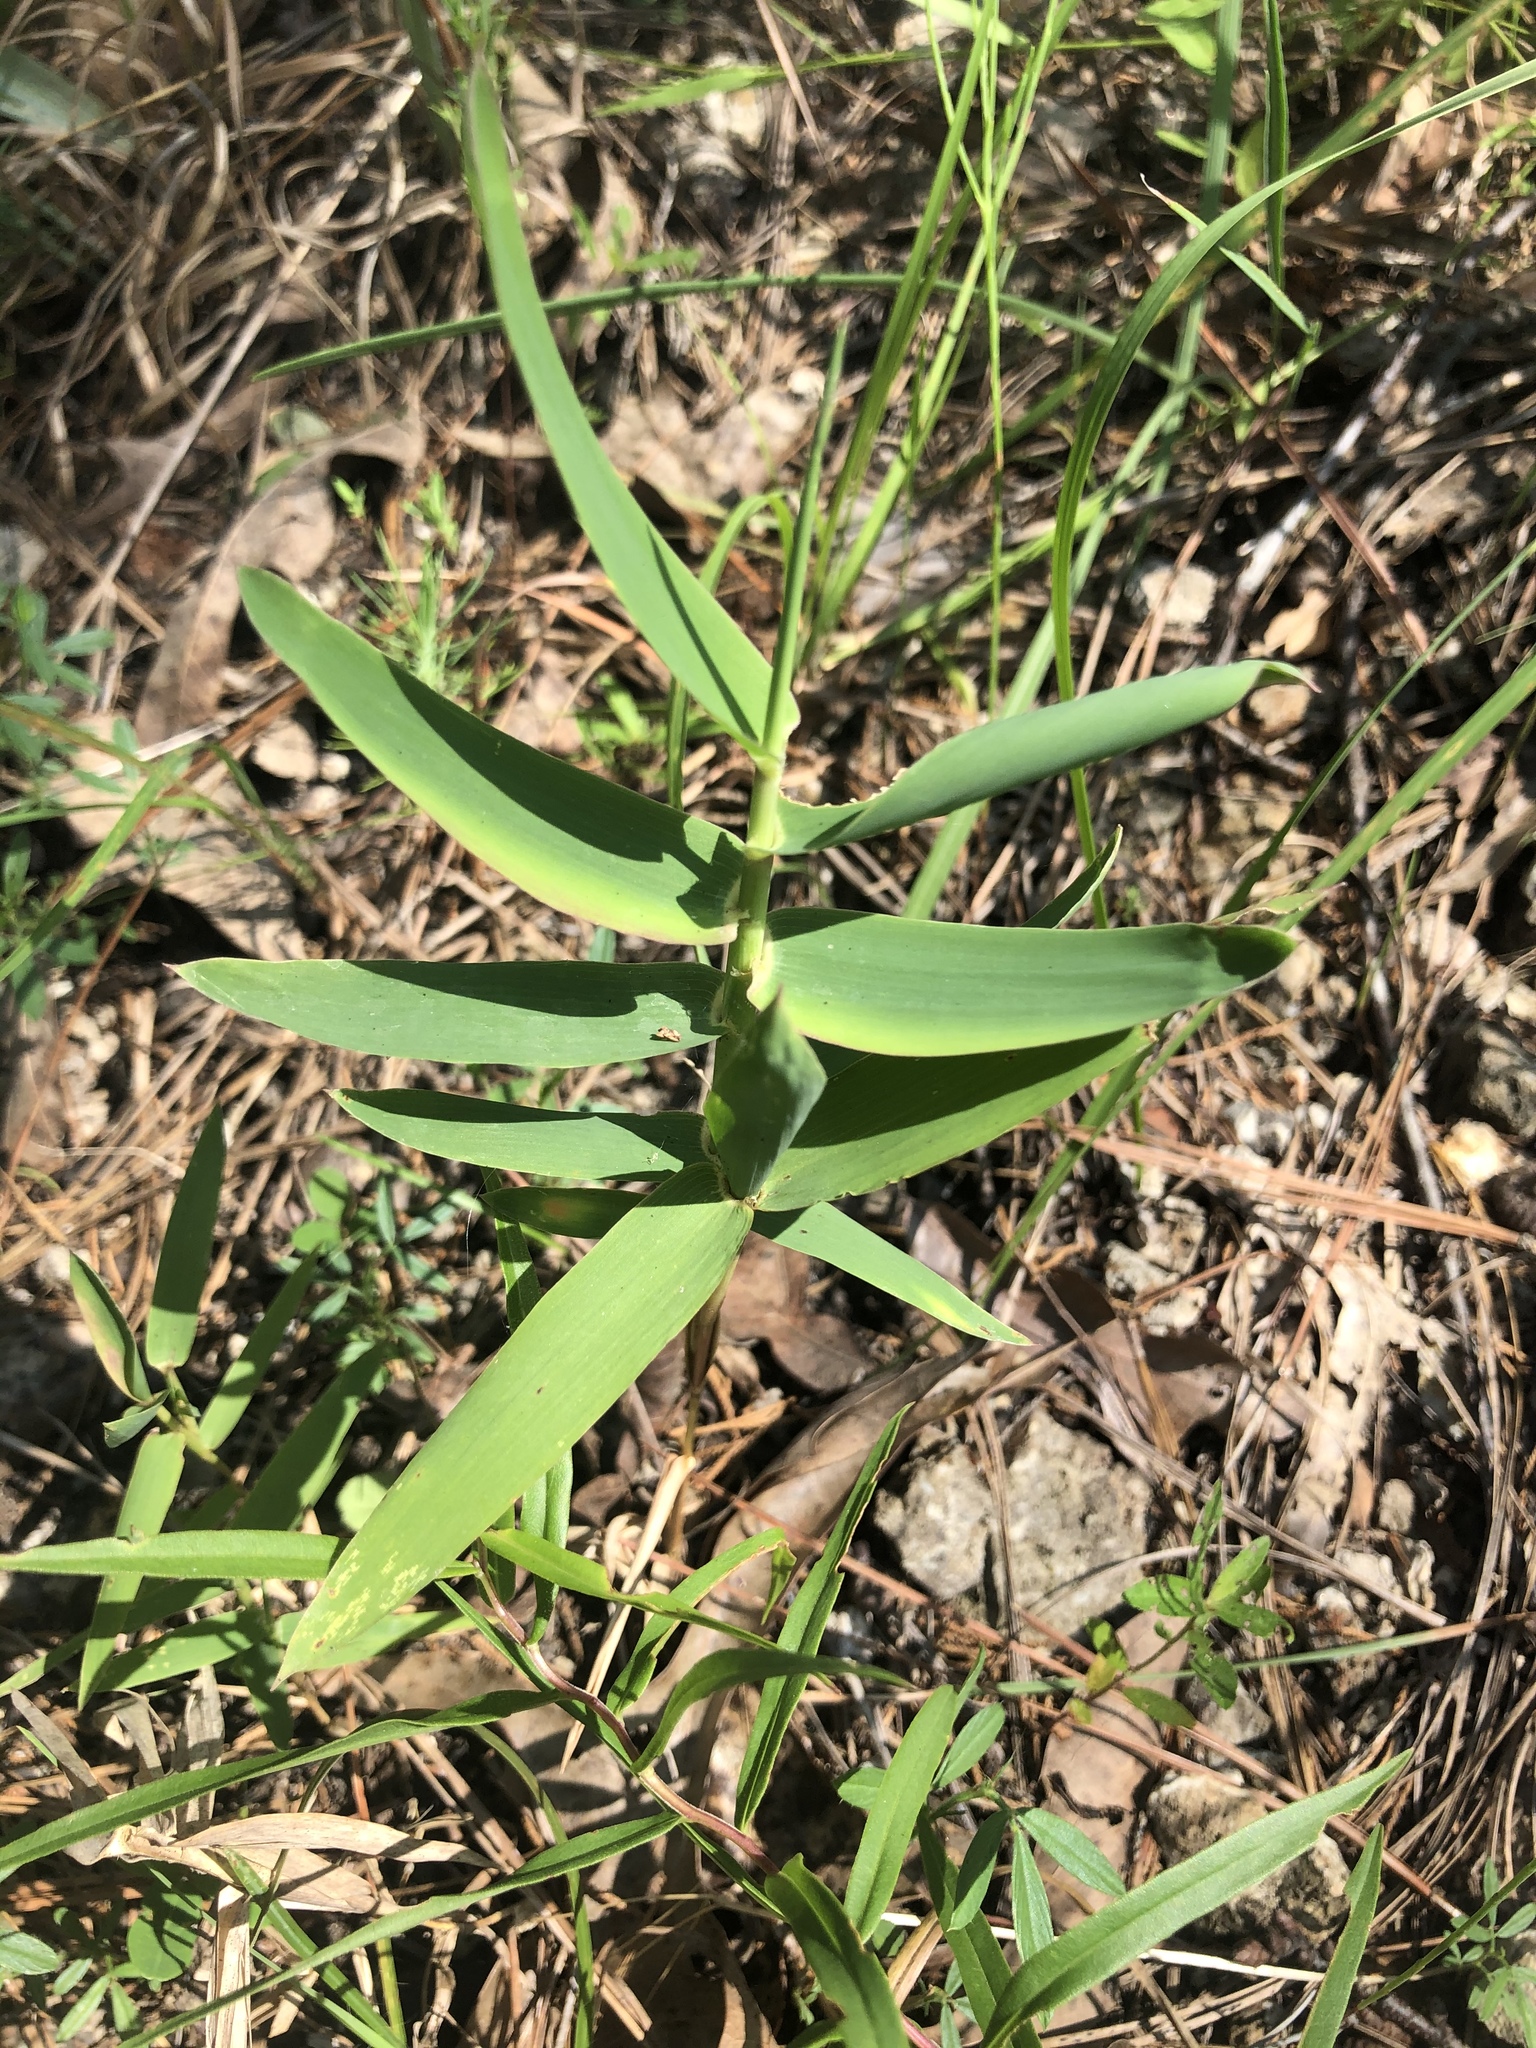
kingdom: Plantae
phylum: Tracheophyta
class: Liliopsida
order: Poales
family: Poaceae
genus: Gymnopogon
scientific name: Gymnopogon ambiguus
